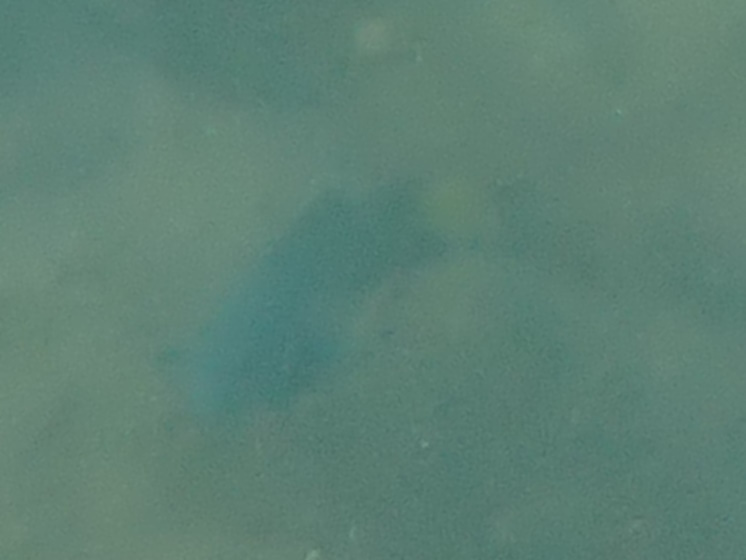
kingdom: Animalia
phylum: Chordata
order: Perciformes
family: Labridae
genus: Thalassoma
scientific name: Thalassoma lunare
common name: Blue wrasse
